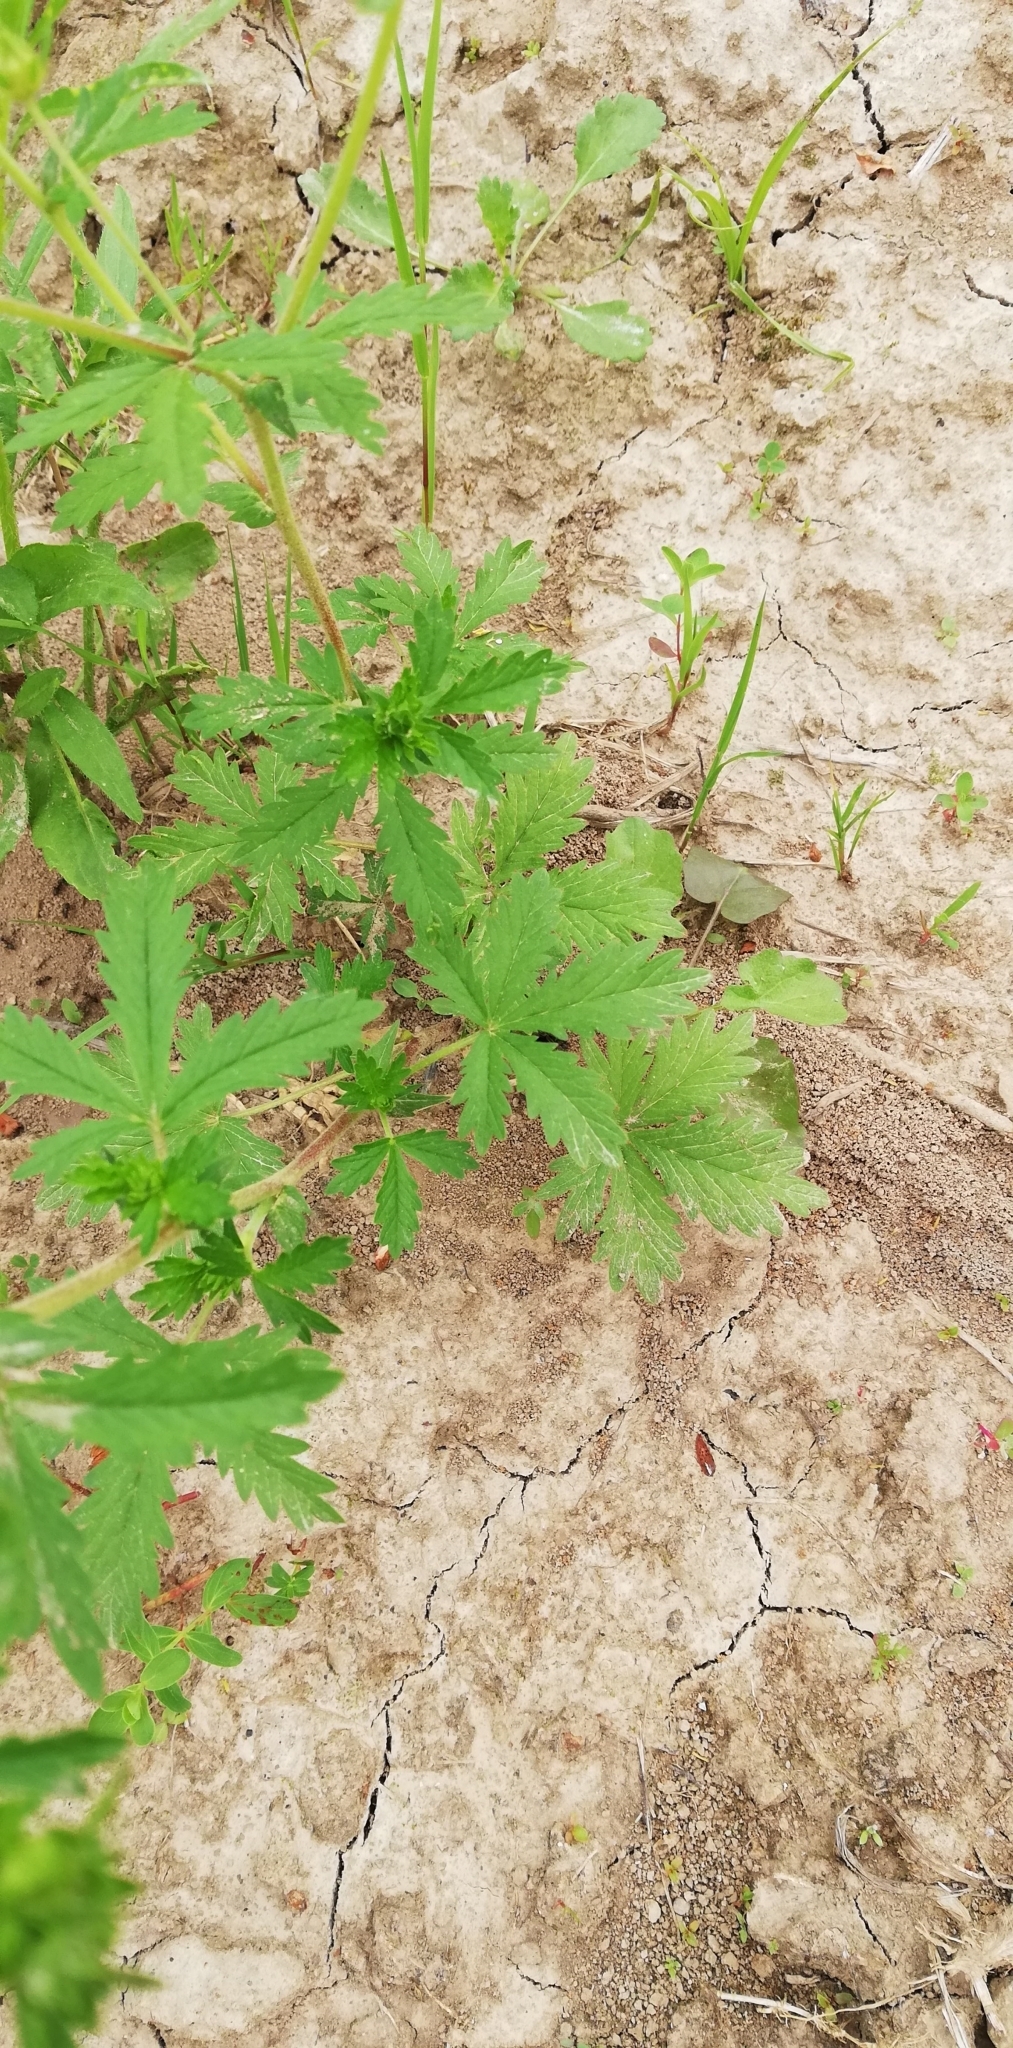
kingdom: Plantae
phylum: Tracheophyta
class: Magnoliopsida
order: Rosales
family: Rosaceae
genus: Potentilla
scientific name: Potentilla intermedia
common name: Downy cinquefoil
